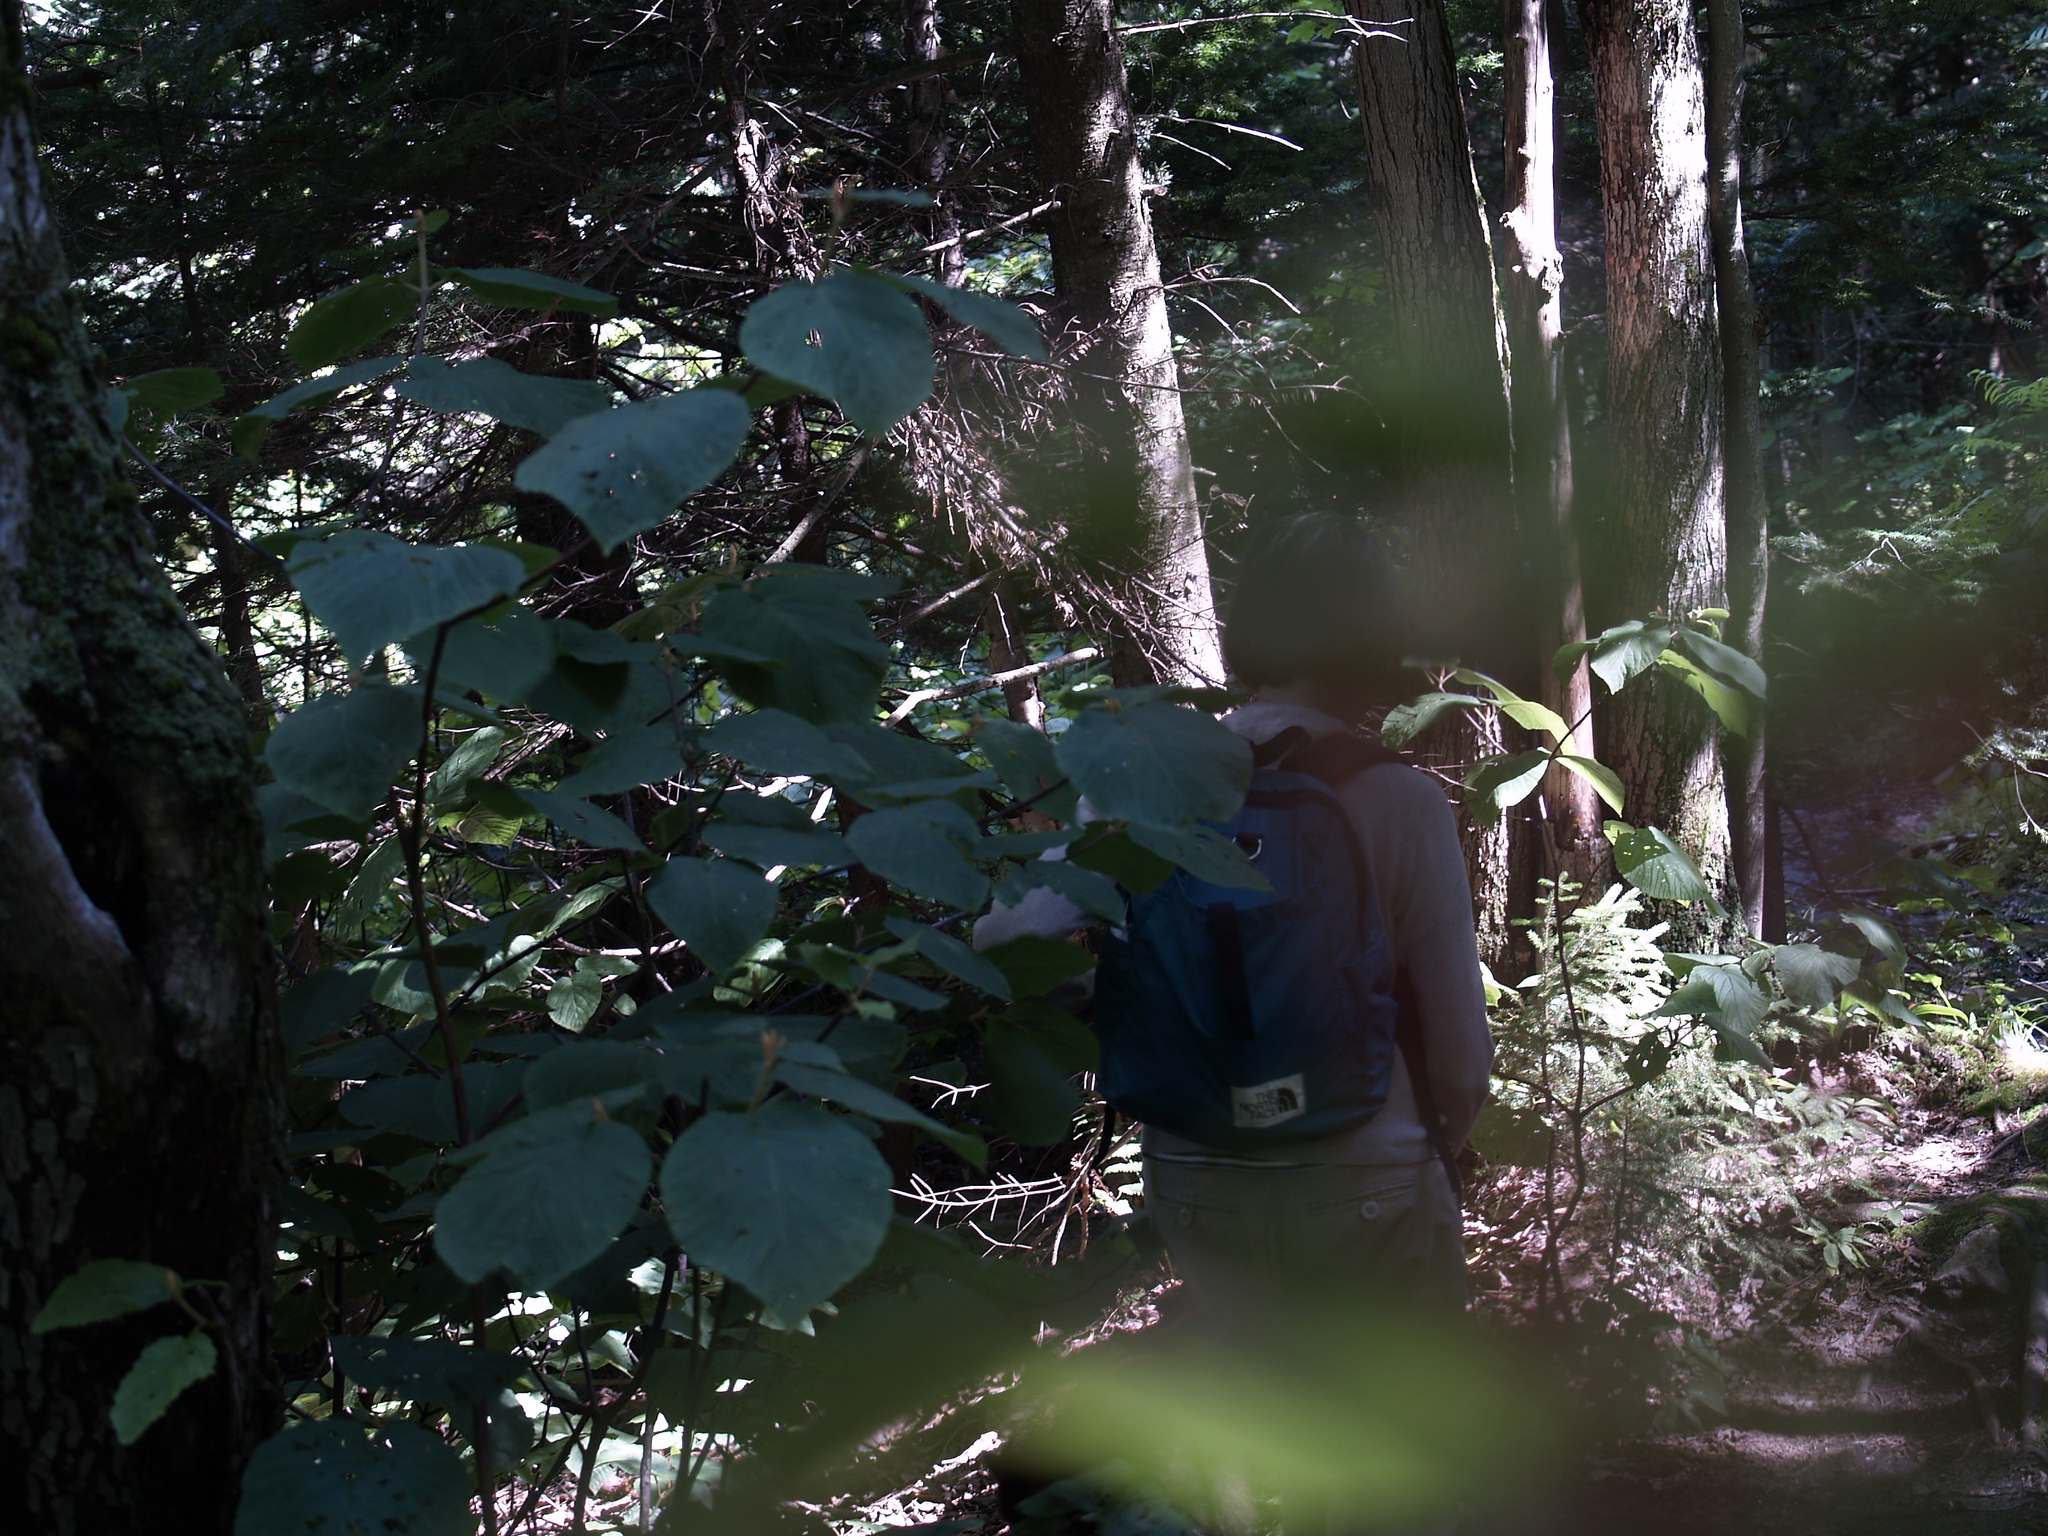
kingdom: Plantae
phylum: Tracheophyta
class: Magnoliopsida
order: Dipsacales
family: Viburnaceae
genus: Viburnum
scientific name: Viburnum lantanoides
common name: Hobblebush
